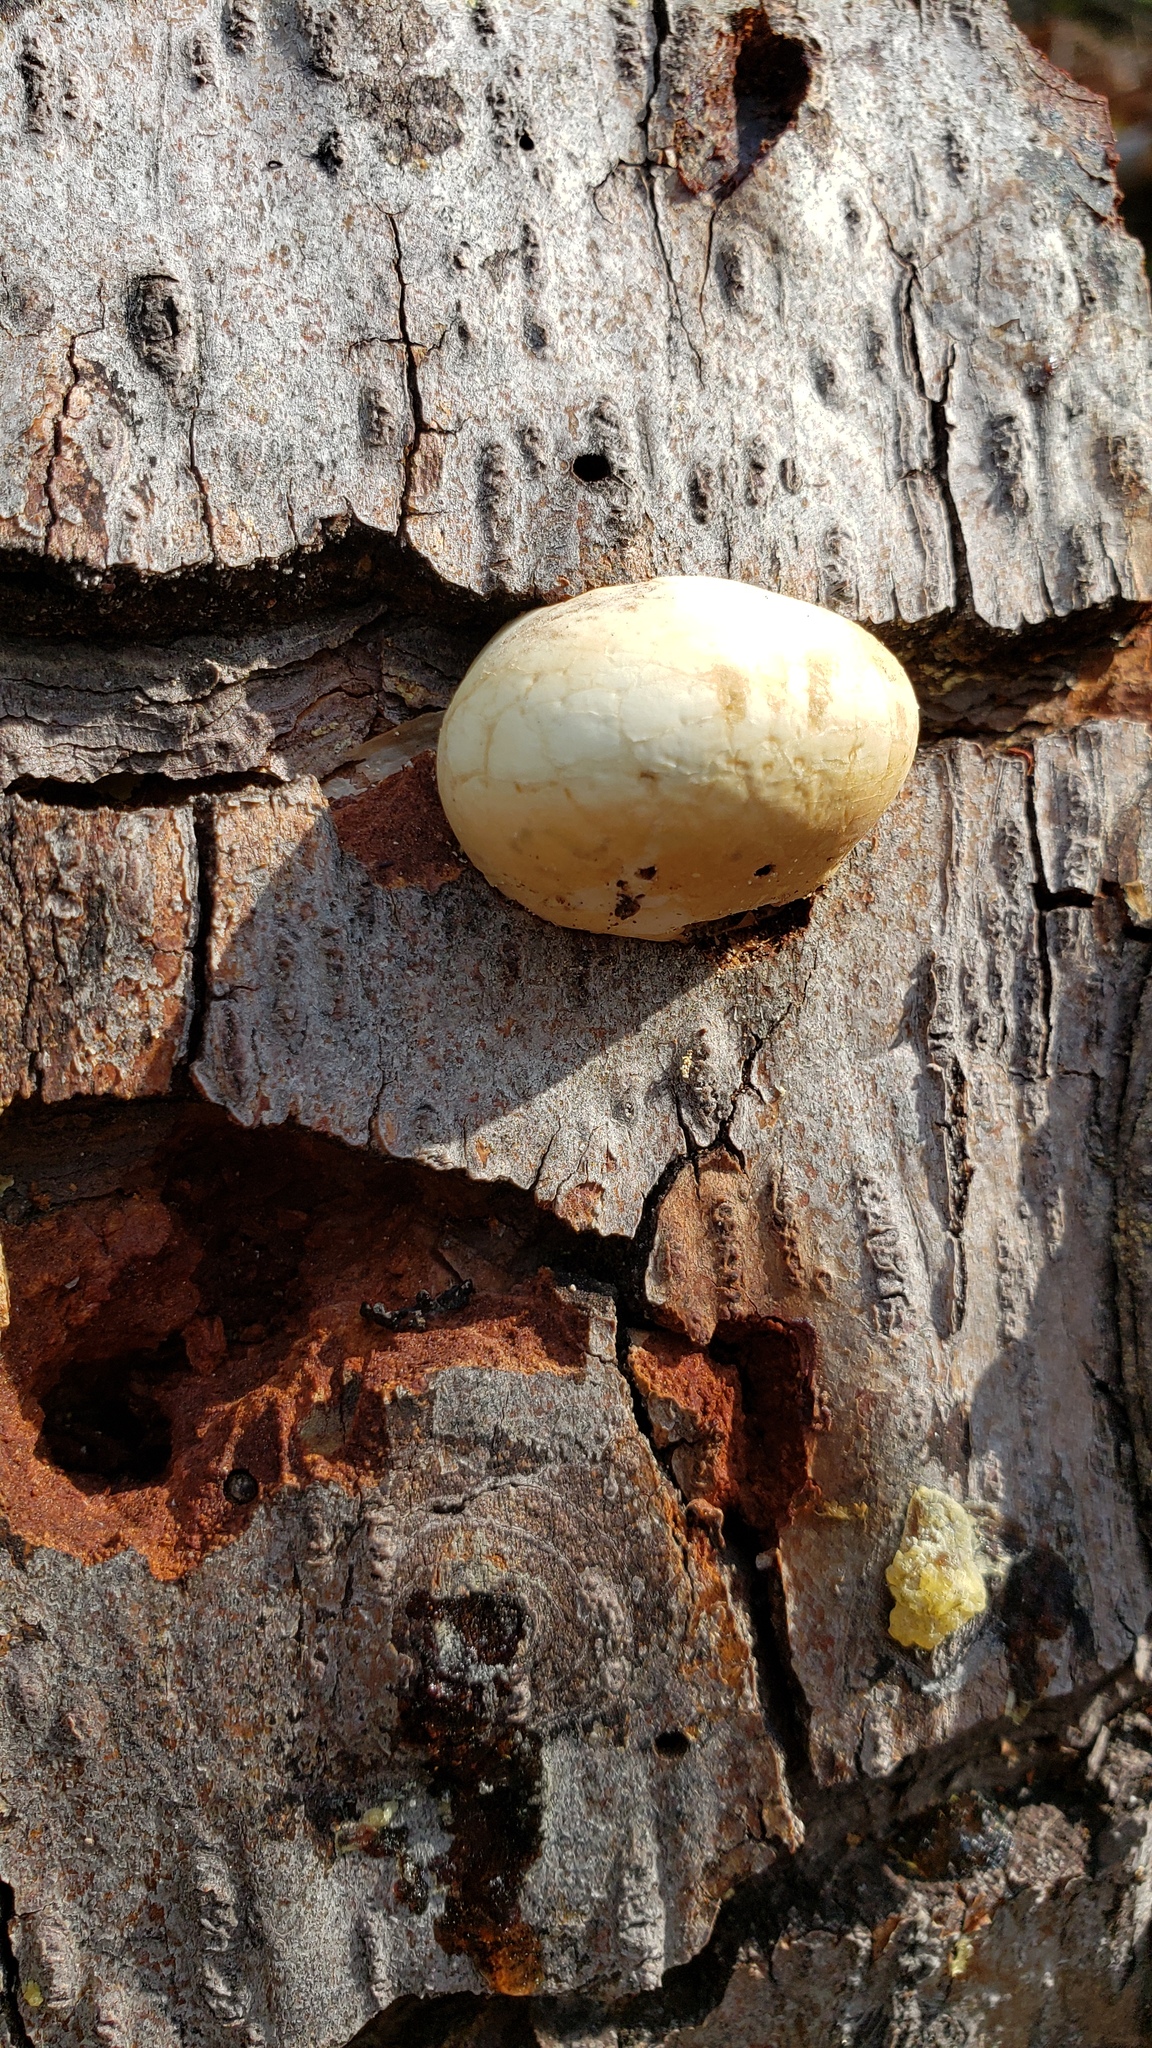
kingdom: Fungi
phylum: Basidiomycota
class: Agaricomycetes
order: Polyporales
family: Polyporaceae
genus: Cryptoporus
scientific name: Cryptoporus volvatus
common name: Veiled polypore
